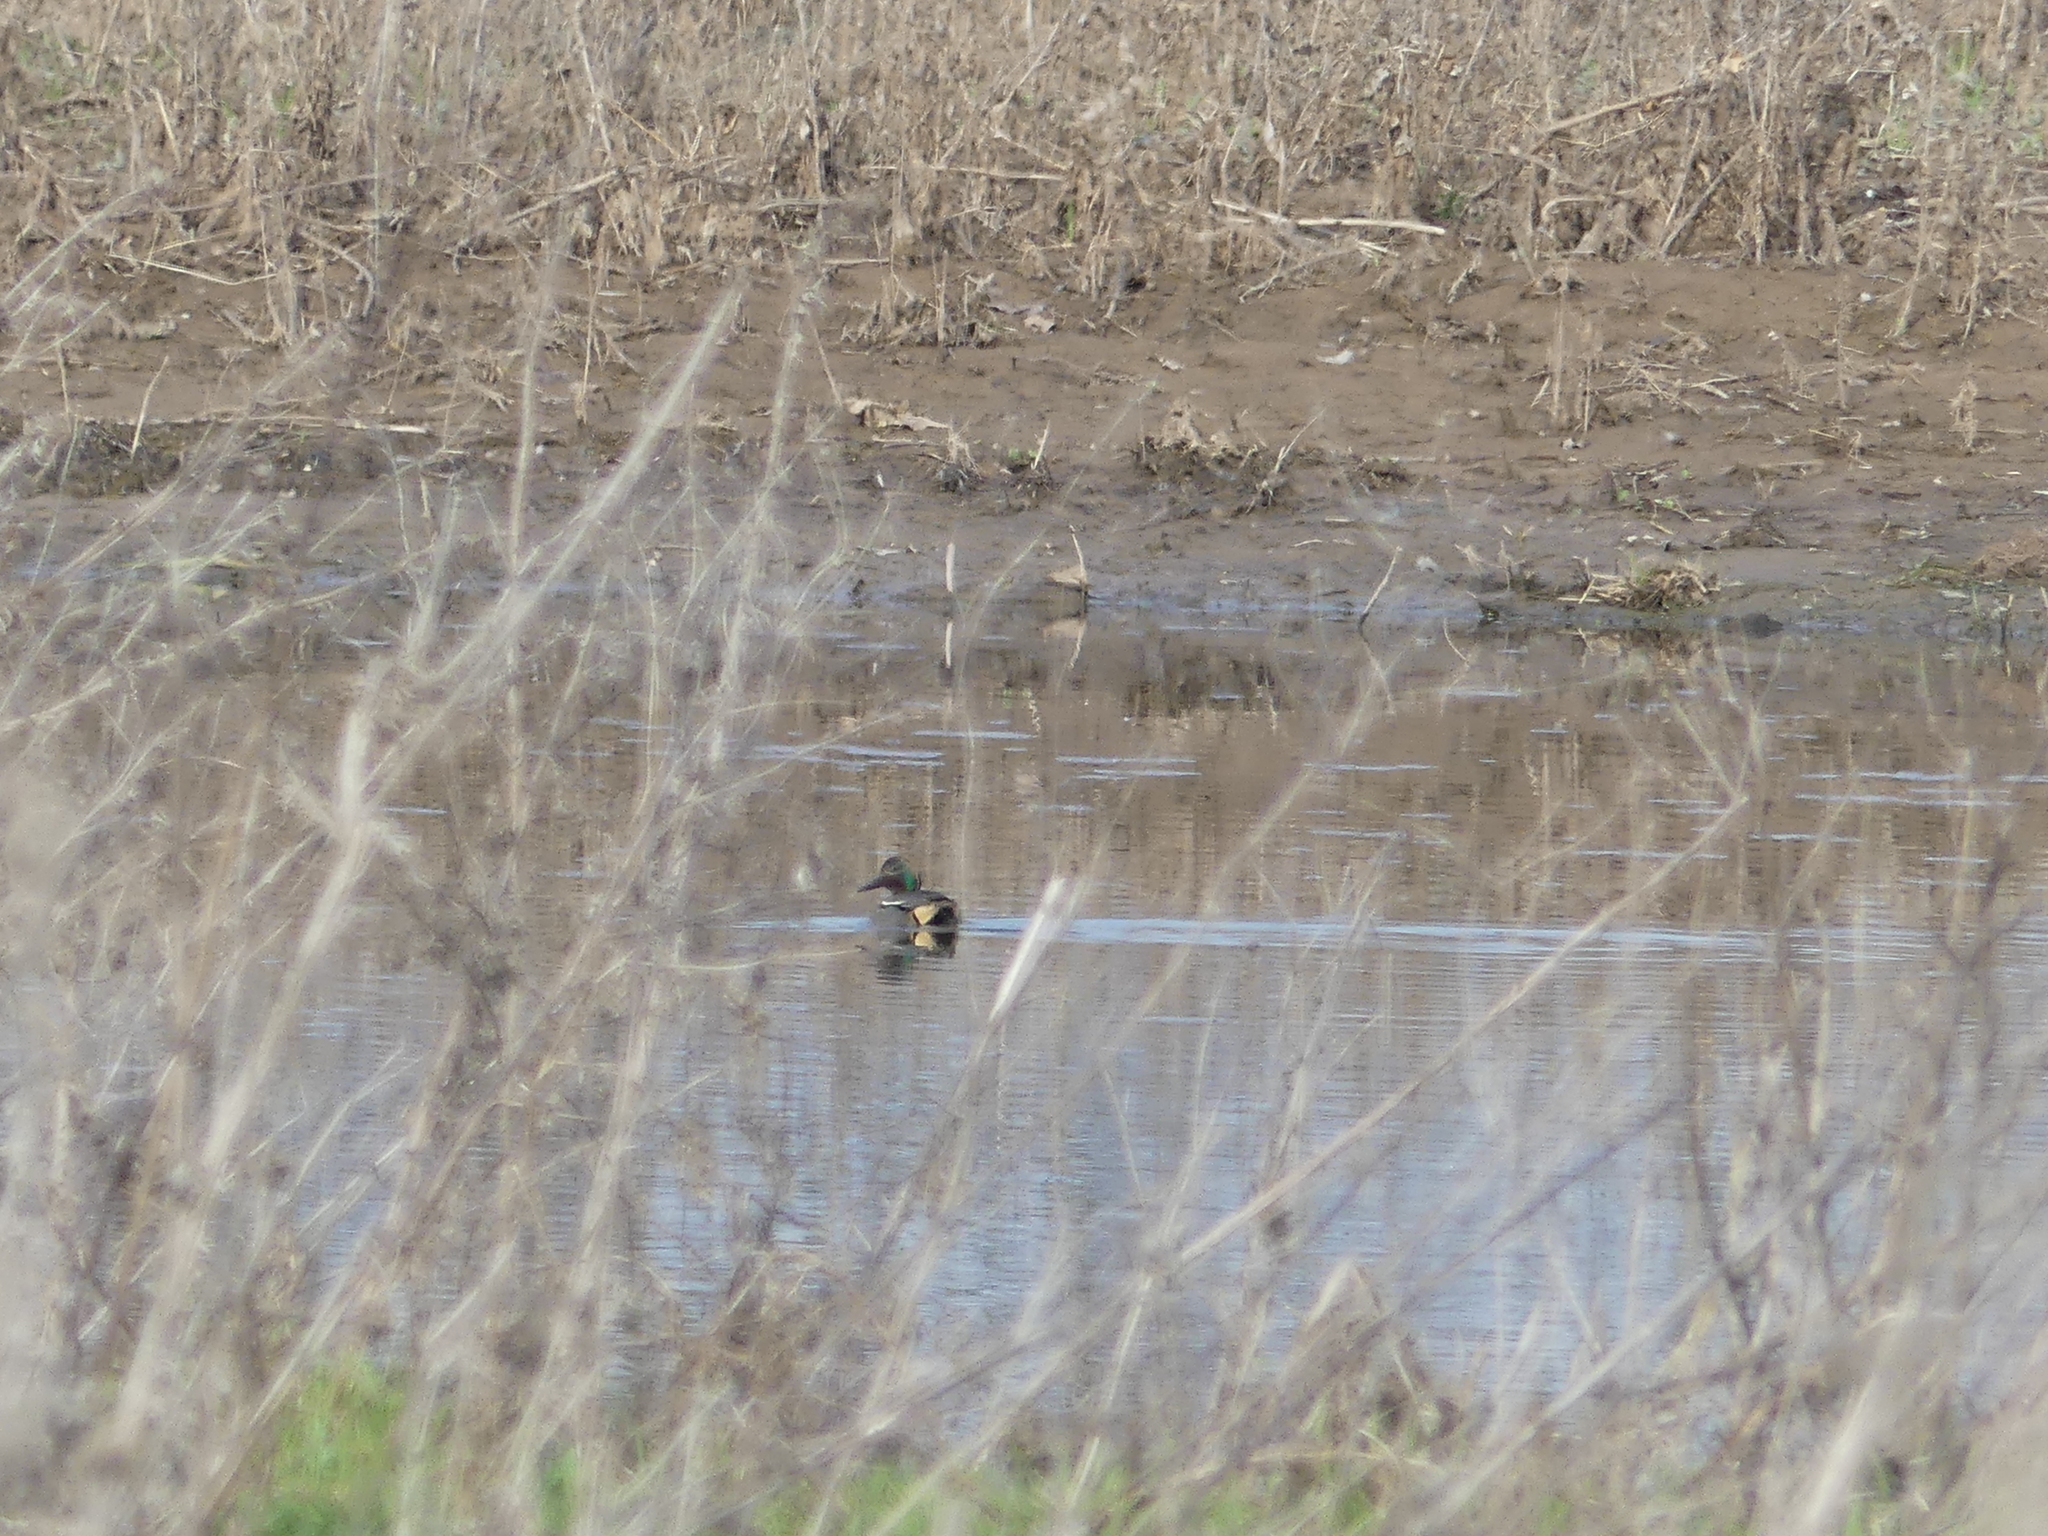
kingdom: Animalia
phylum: Chordata
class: Aves
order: Anseriformes
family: Anatidae
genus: Anas
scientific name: Anas crecca
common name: Eurasian teal
